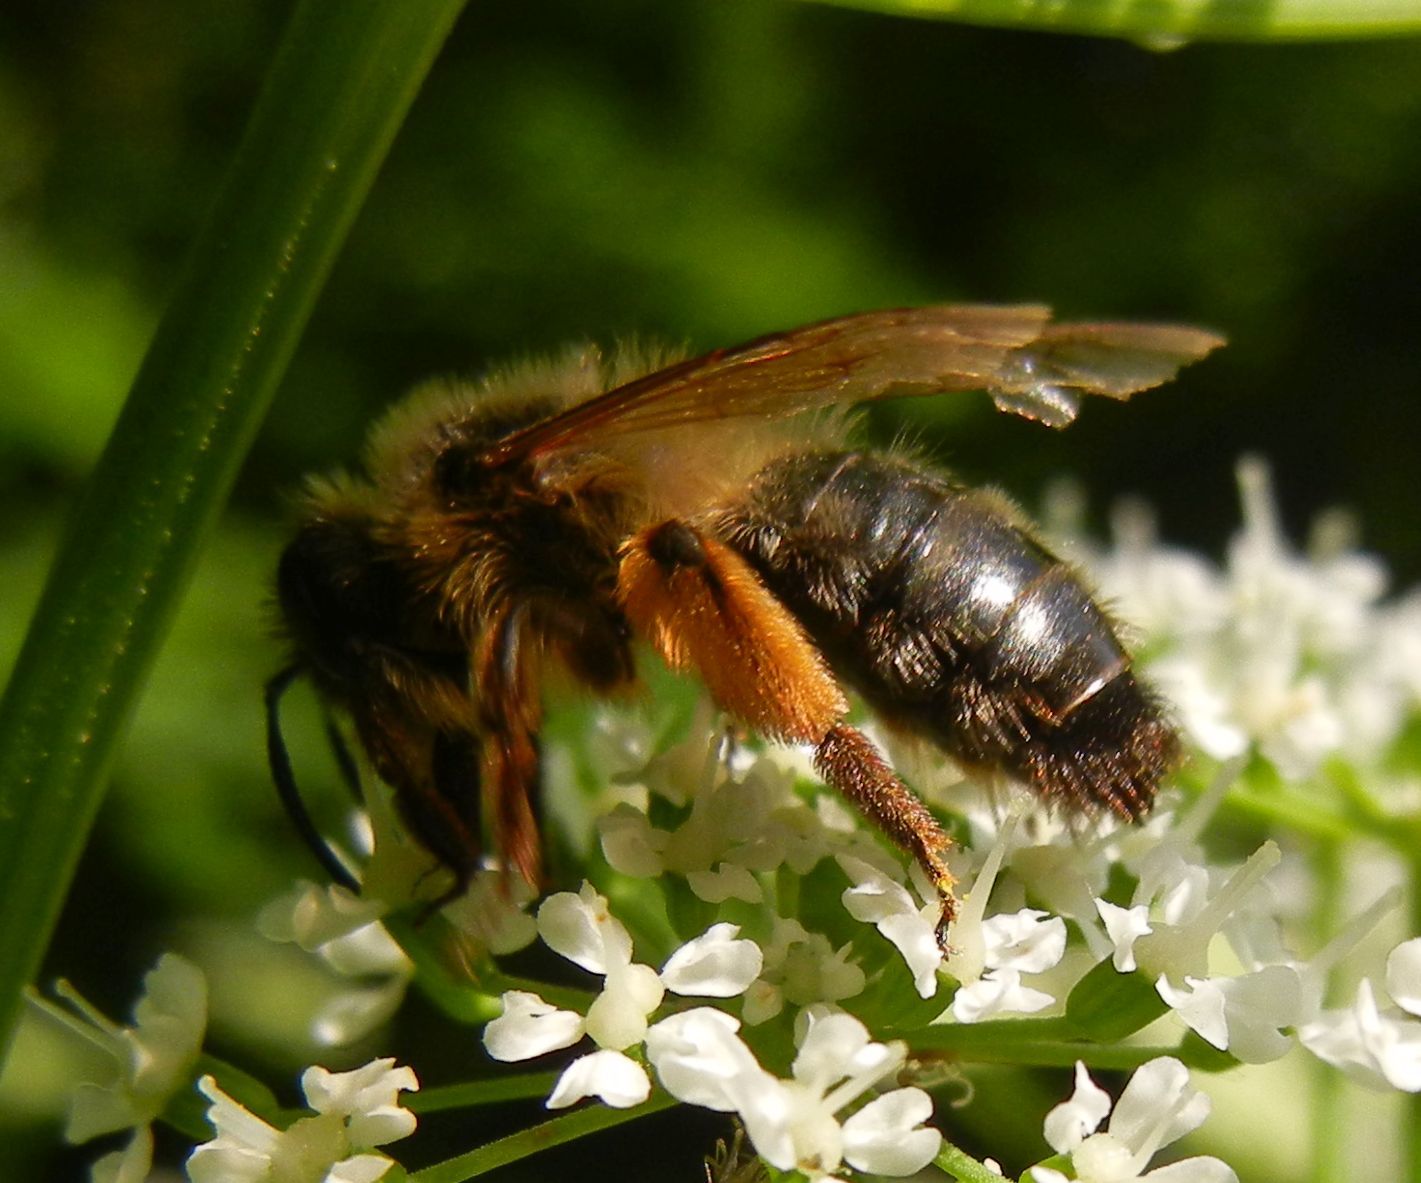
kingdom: Animalia
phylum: Arthropoda
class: Insecta
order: Hymenoptera
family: Andrenidae
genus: Andrena
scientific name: Andrena nigroaenea
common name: Buffish mining bee
